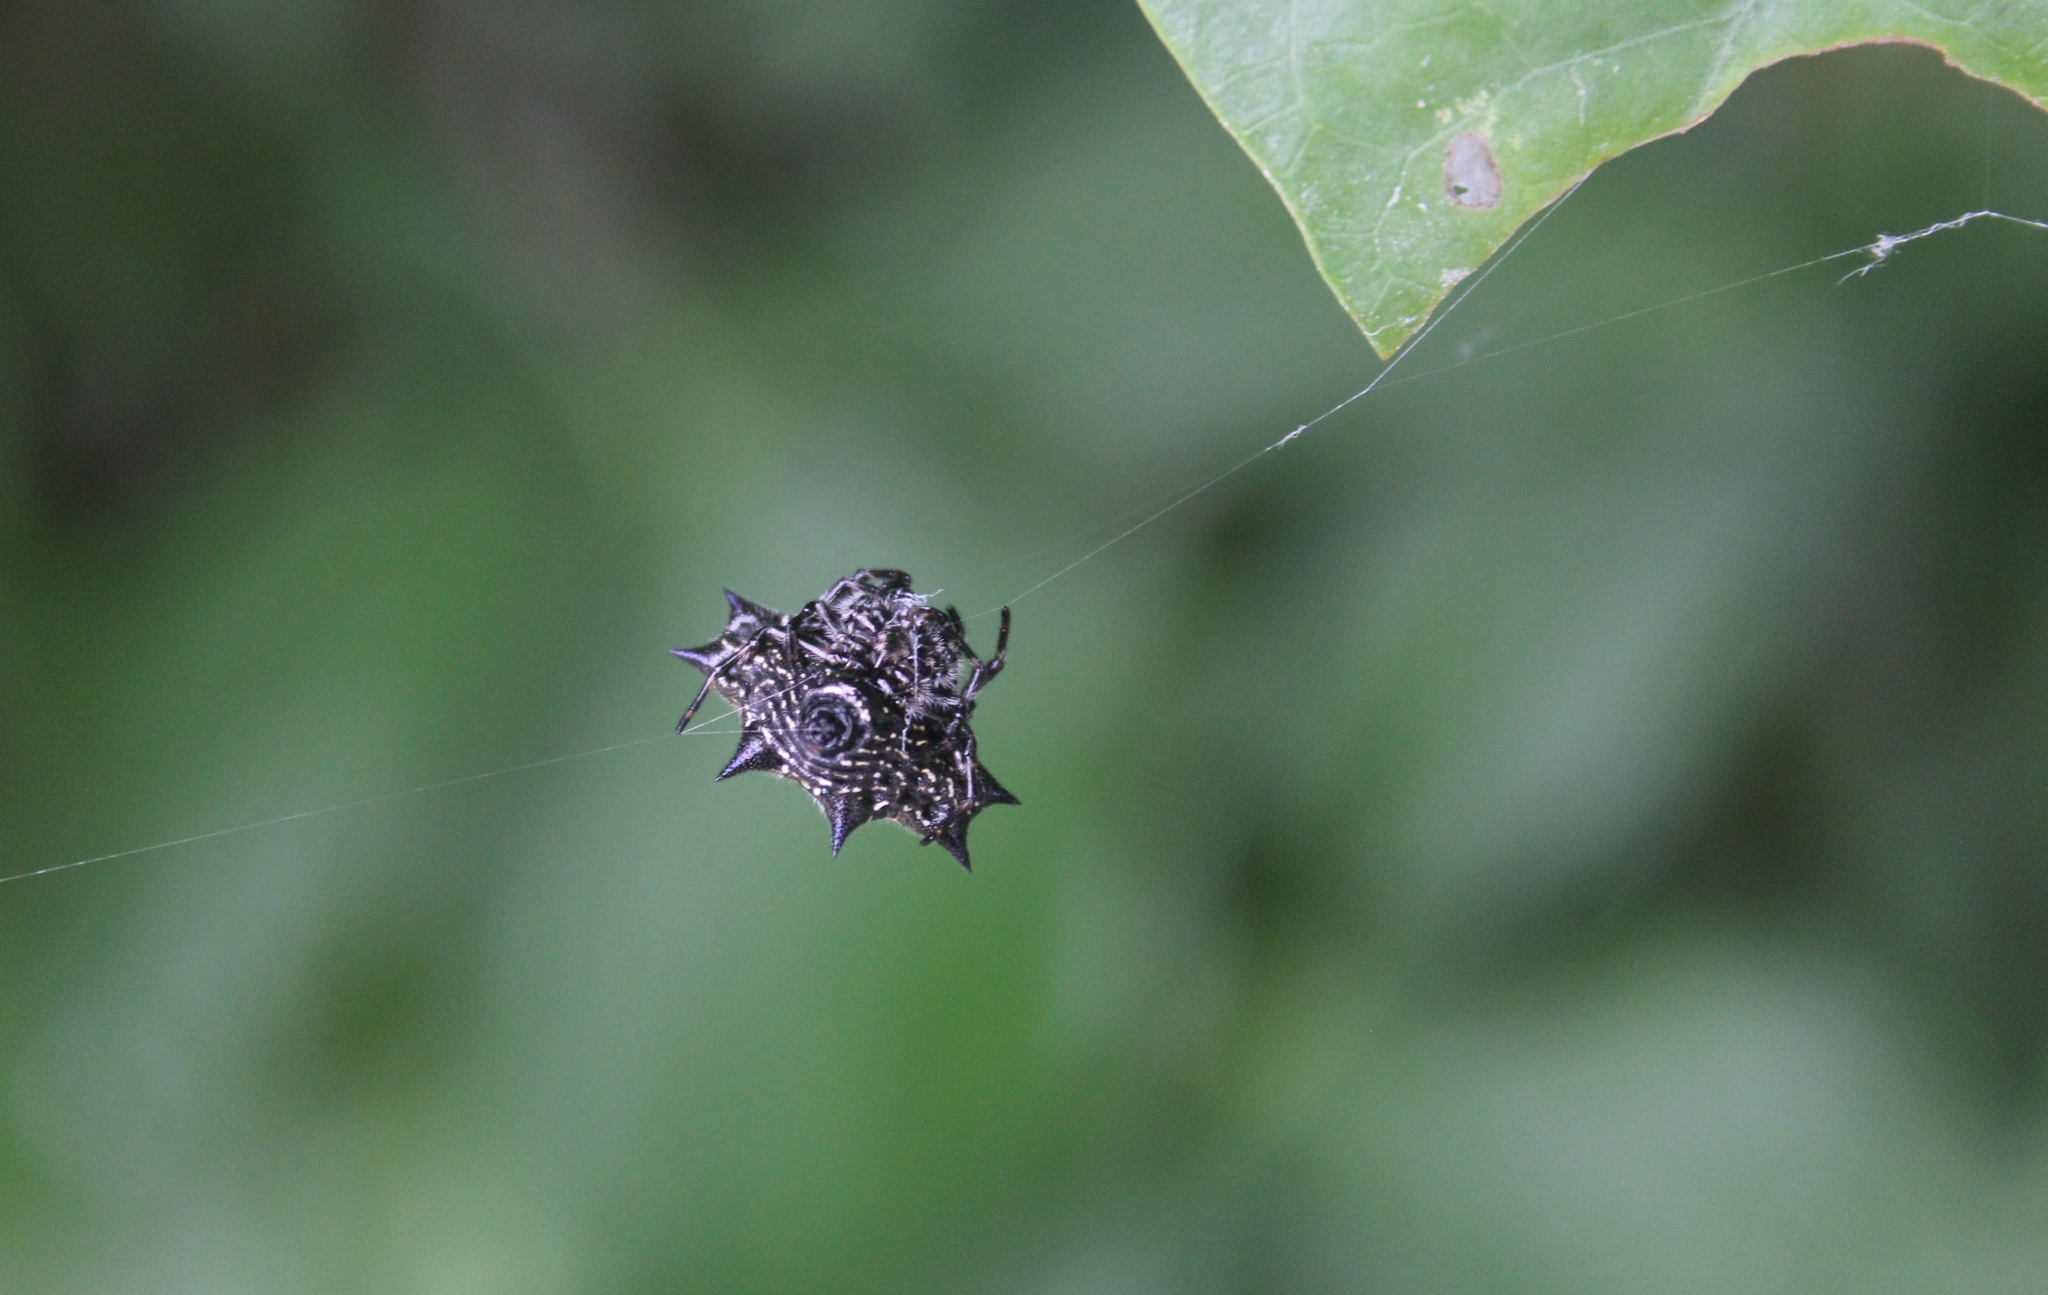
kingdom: Animalia
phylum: Arthropoda
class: Arachnida
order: Araneae
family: Araneidae
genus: Gasteracantha
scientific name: Gasteracantha cancriformis
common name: Orb weavers
